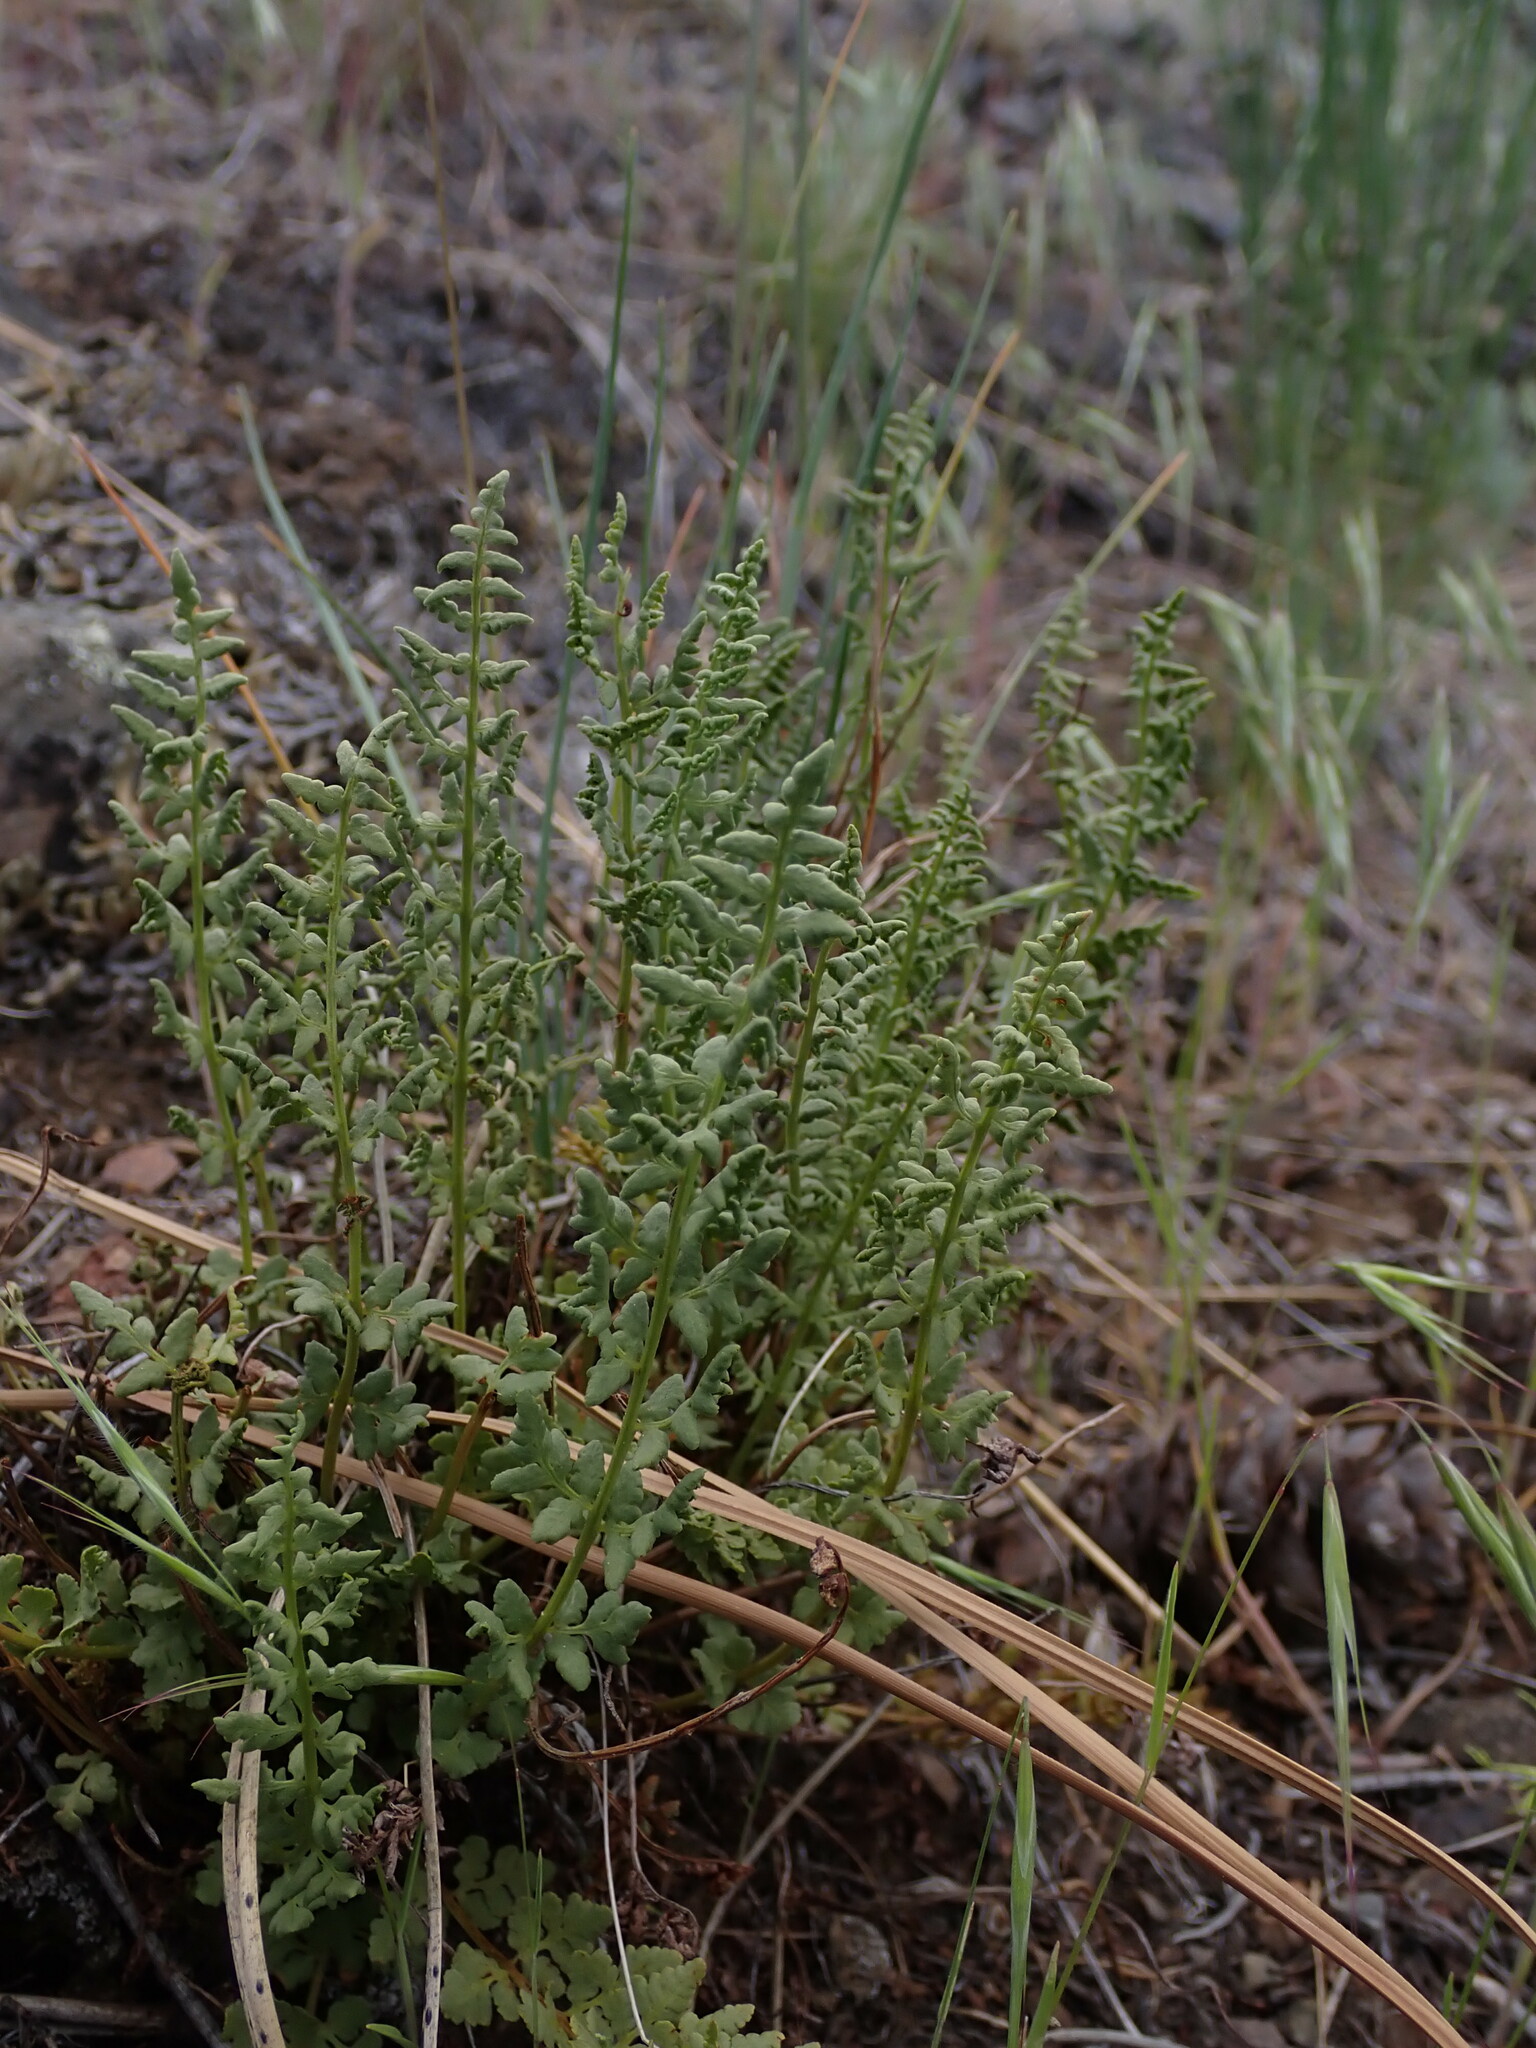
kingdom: Plantae
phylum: Tracheophyta
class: Polypodiopsida
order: Polypodiales
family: Woodsiaceae
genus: Physematium
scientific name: Physematium oreganum
